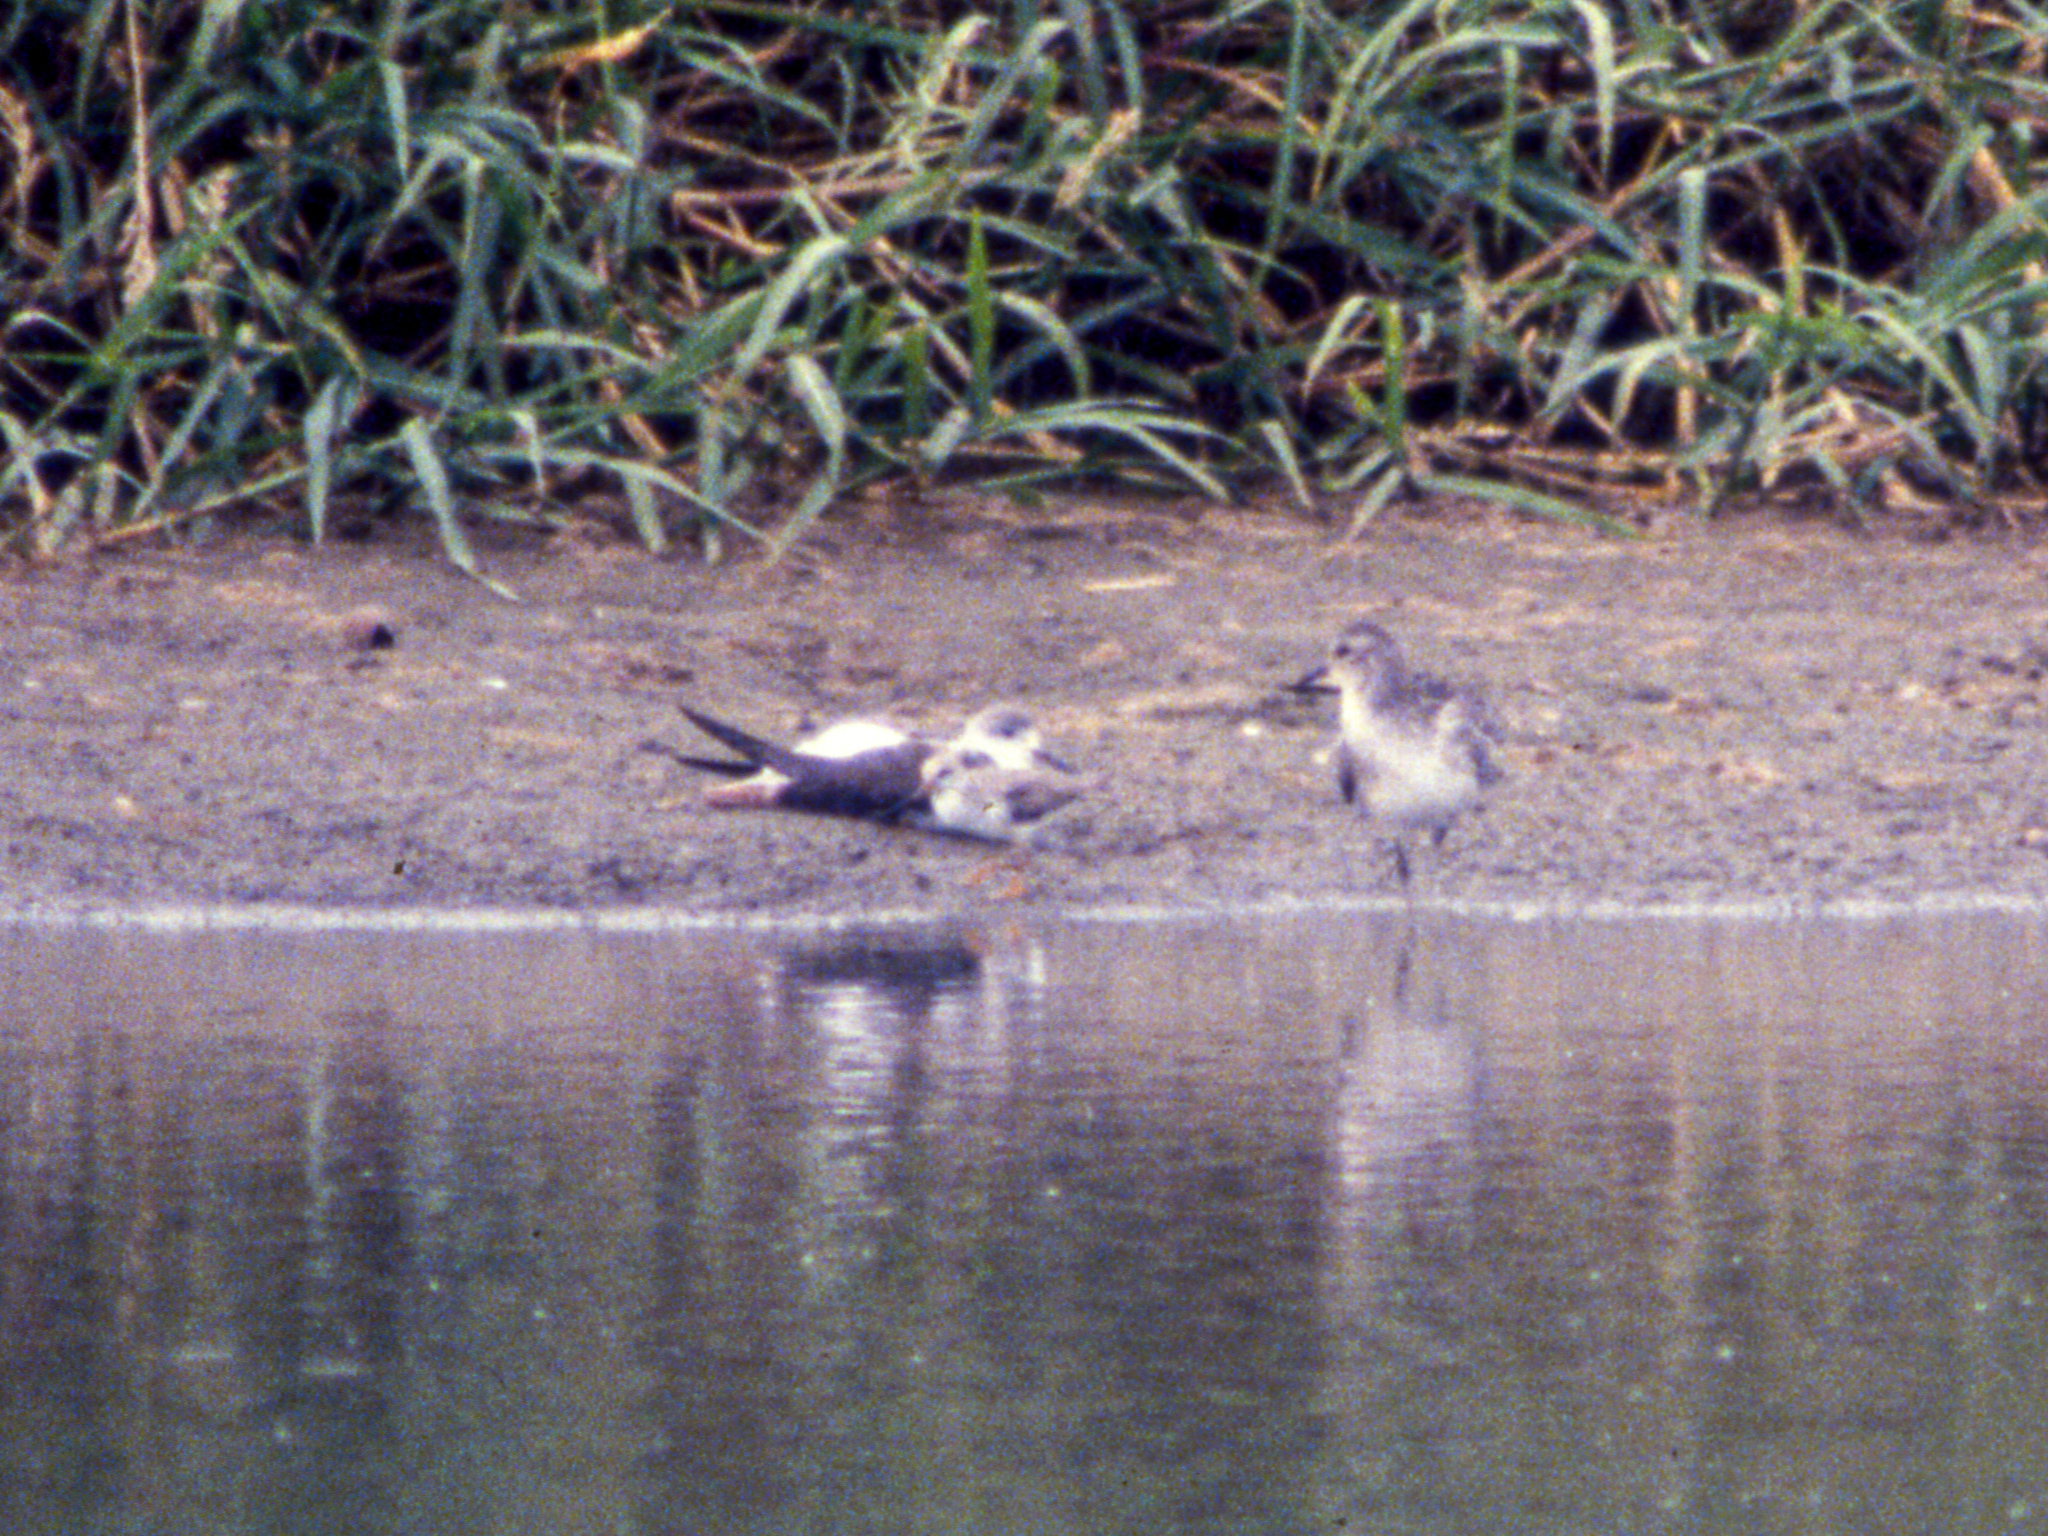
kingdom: Animalia
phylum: Chordata
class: Aves
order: Charadriiformes
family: Recurvirostridae
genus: Himantopus
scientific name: Himantopus himantopus
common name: Black-winged stilt
